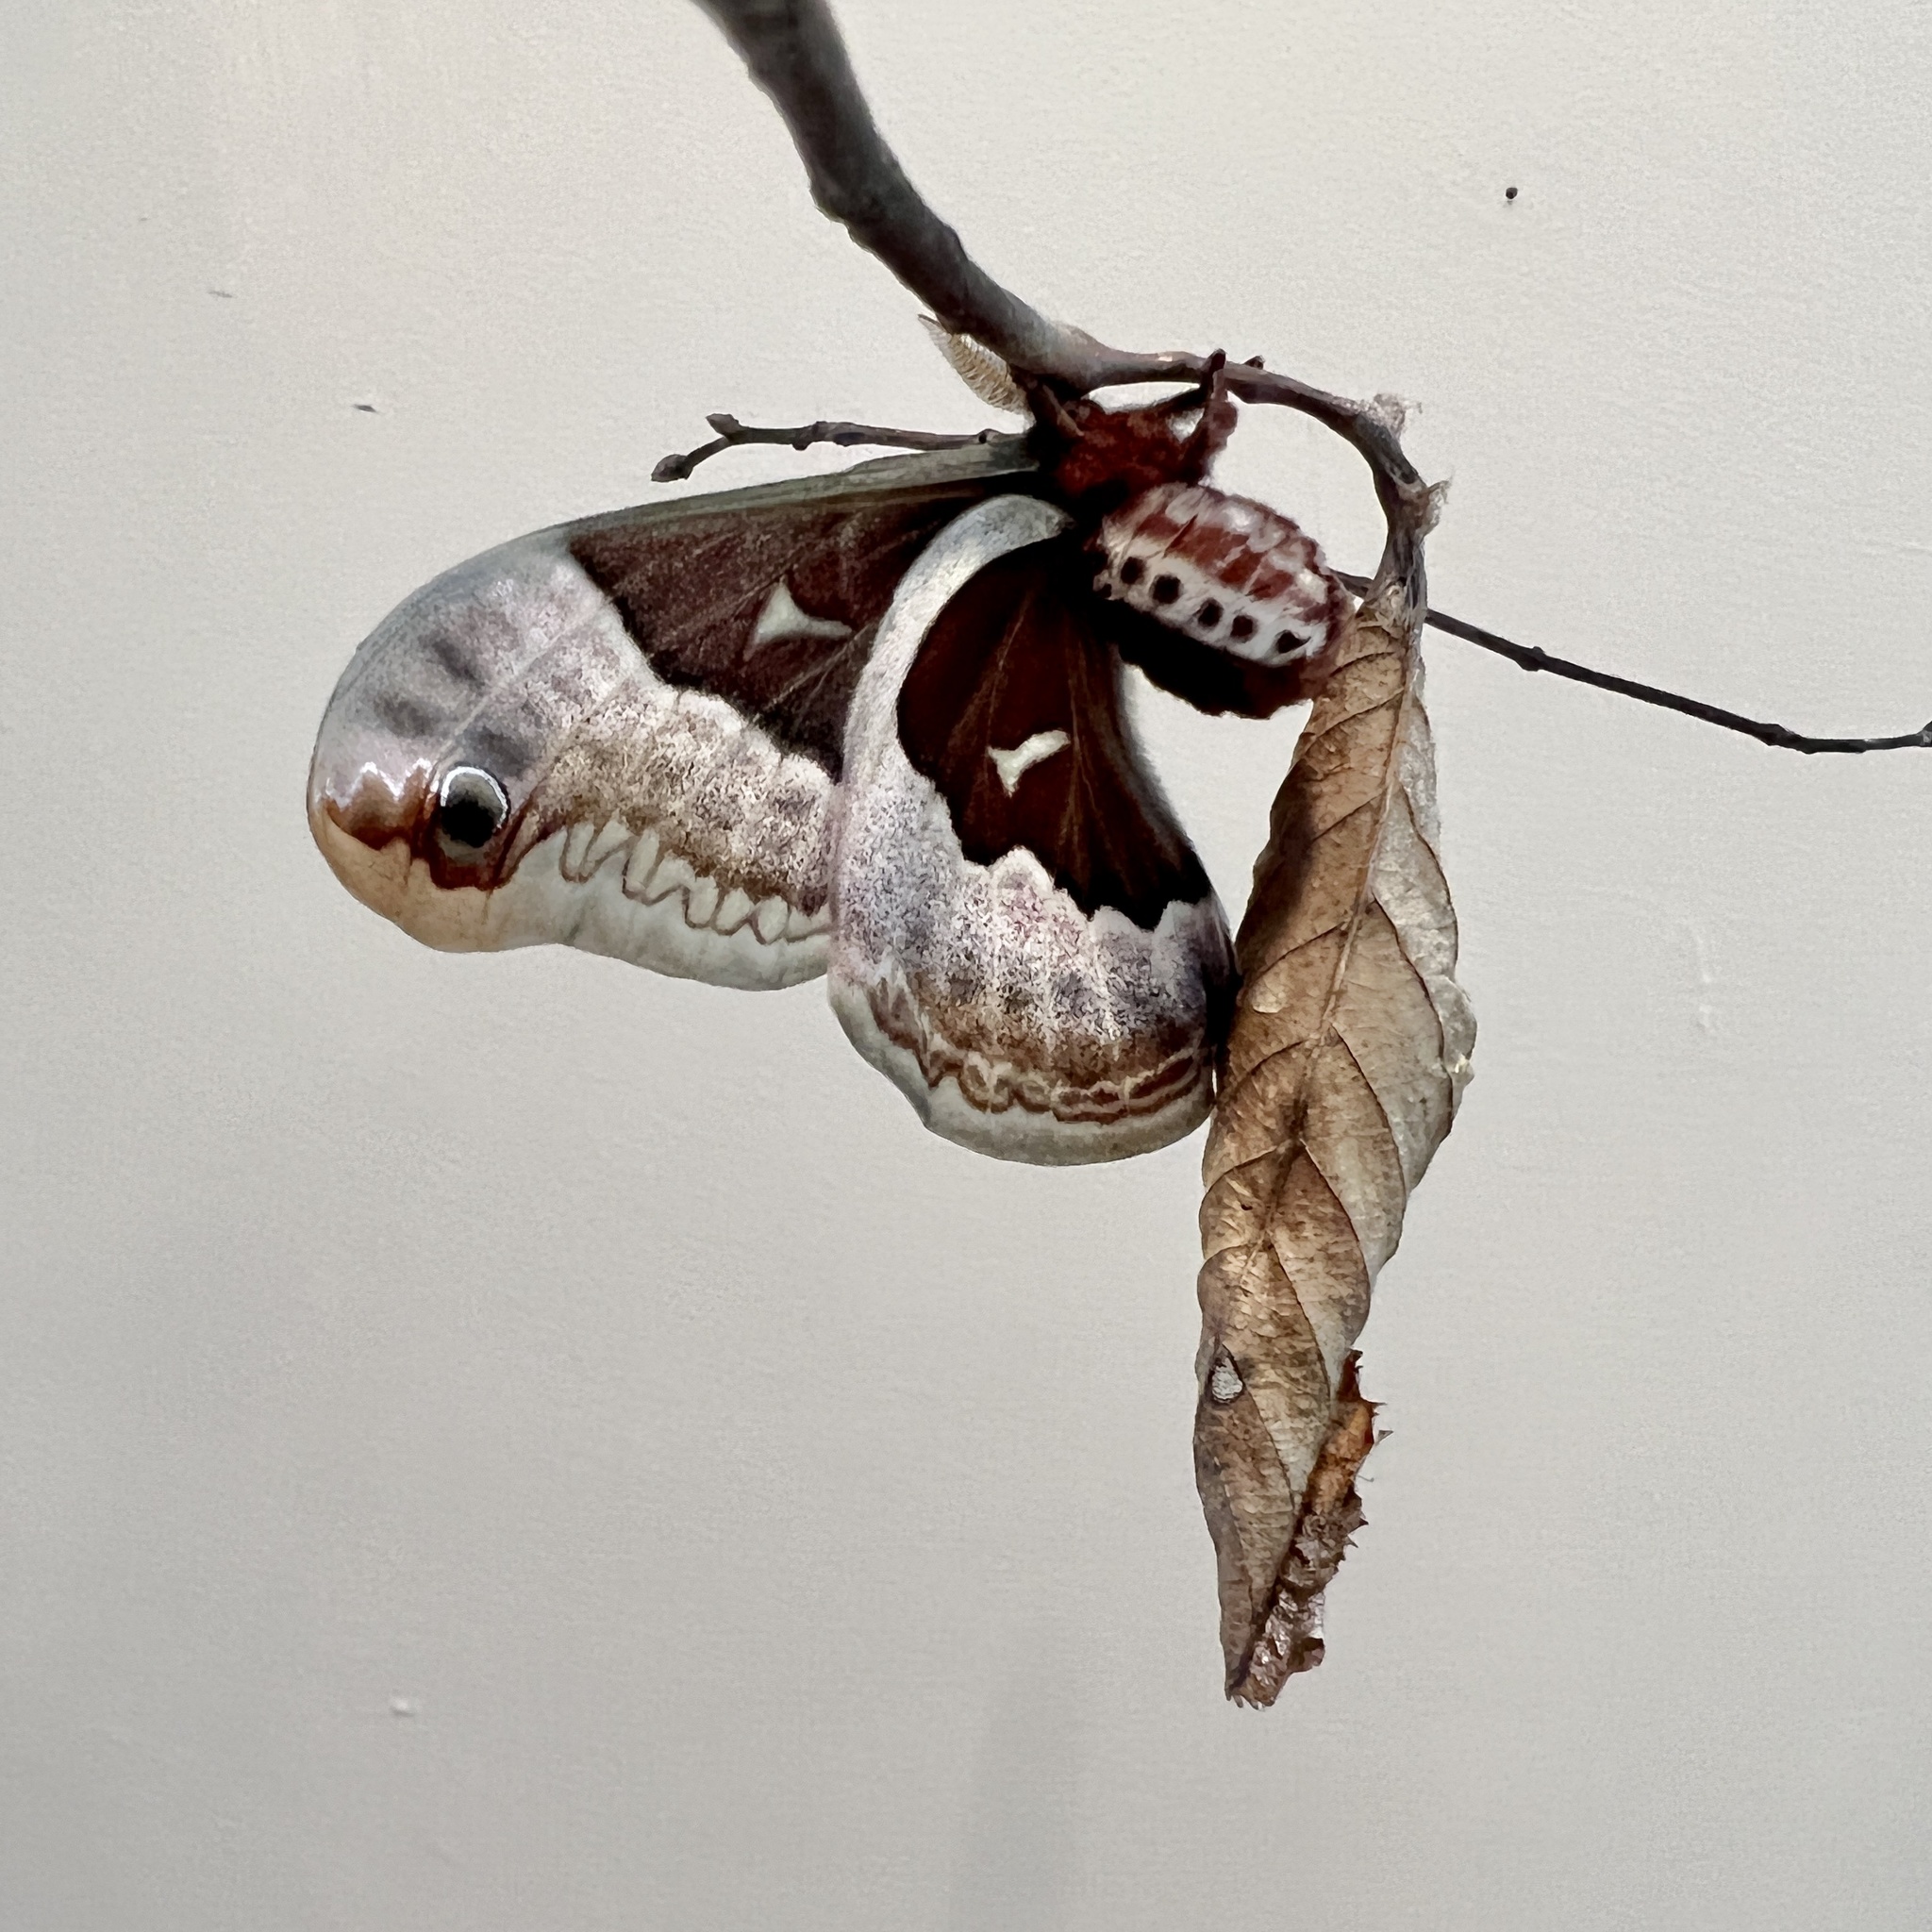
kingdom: Animalia
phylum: Arthropoda
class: Insecta
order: Lepidoptera
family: Saturniidae
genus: Callosamia
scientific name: Callosamia promethea
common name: Promethea silkmoth
